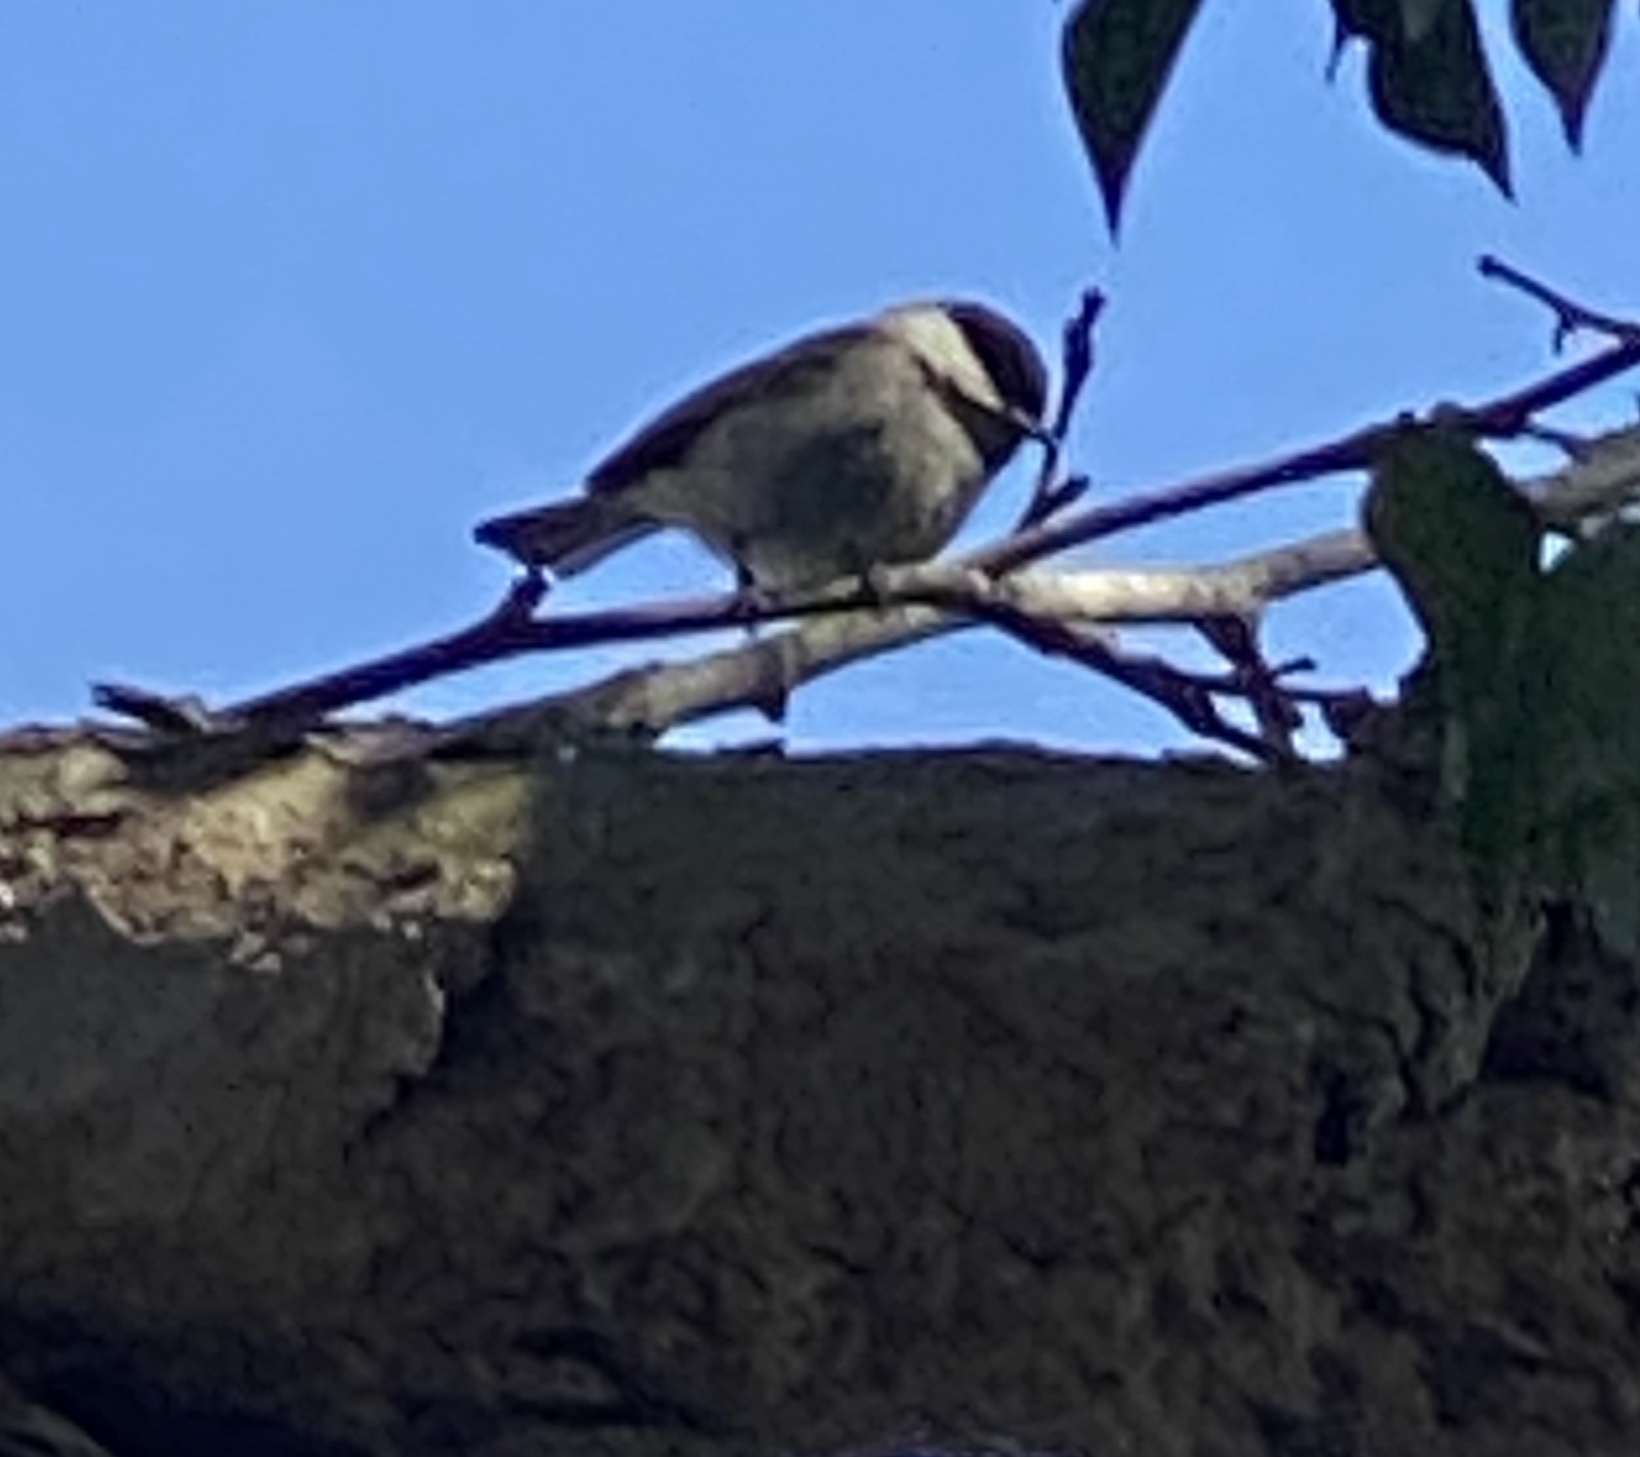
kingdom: Animalia
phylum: Chordata
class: Aves
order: Passeriformes
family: Paridae
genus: Poecile
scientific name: Poecile rufescens
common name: Chestnut-backed chickadee
